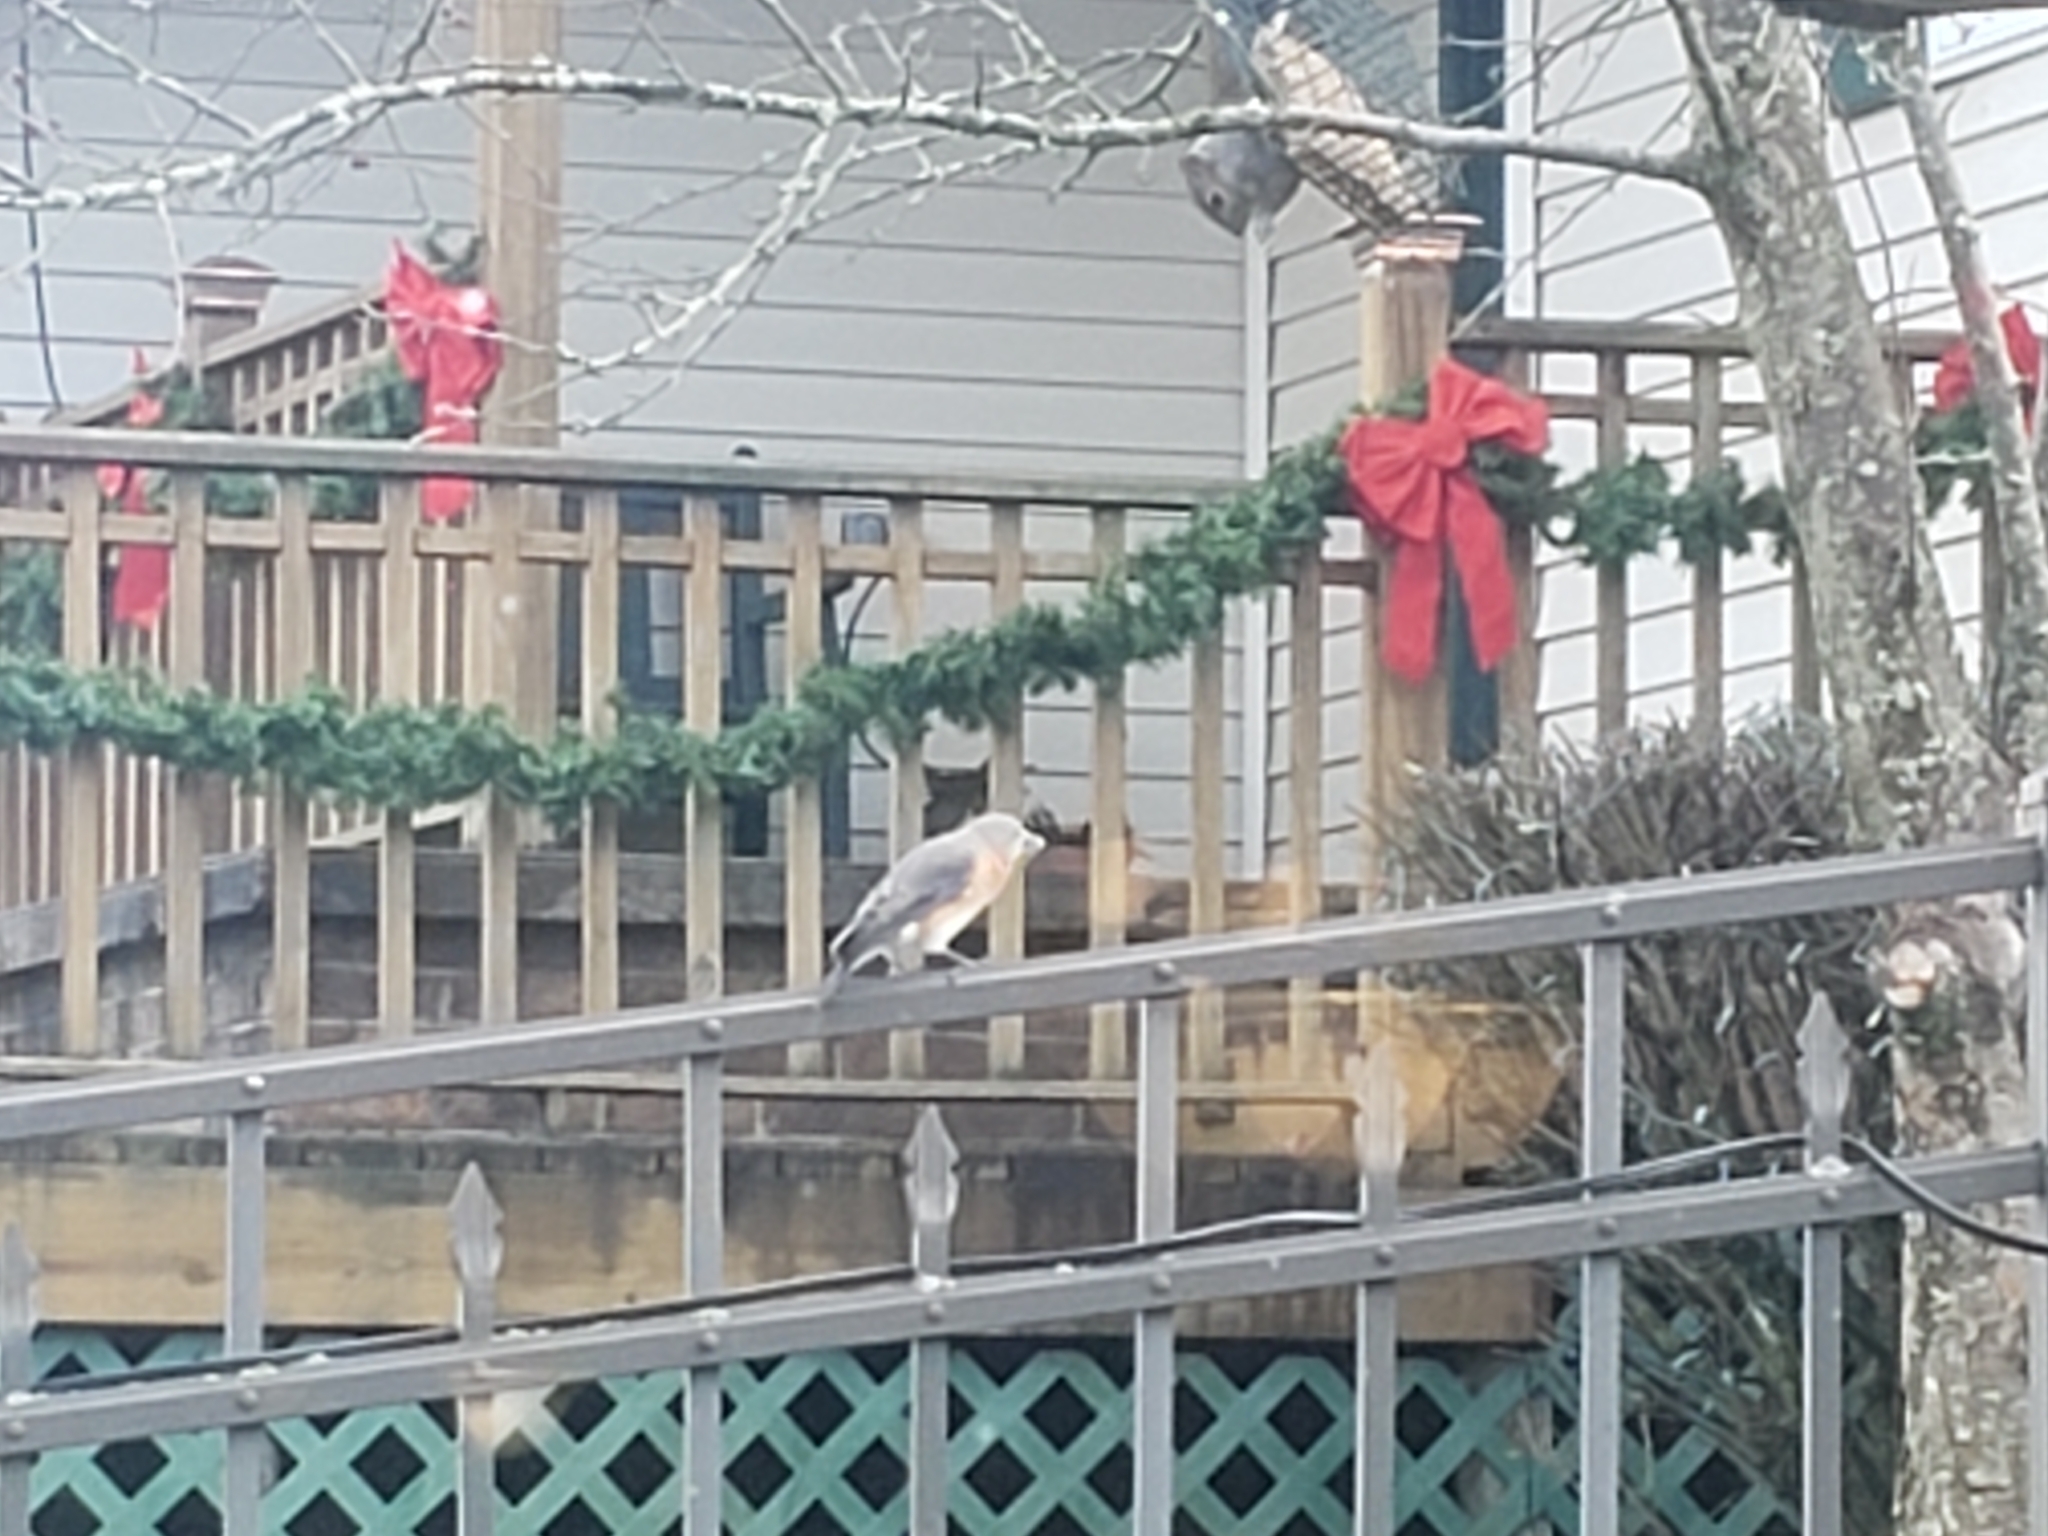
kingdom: Animalia
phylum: Chordata
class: Aves
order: Passeriformes
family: Turdidae
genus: Sialia
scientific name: Sialia sialis
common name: Eastern bluebird
